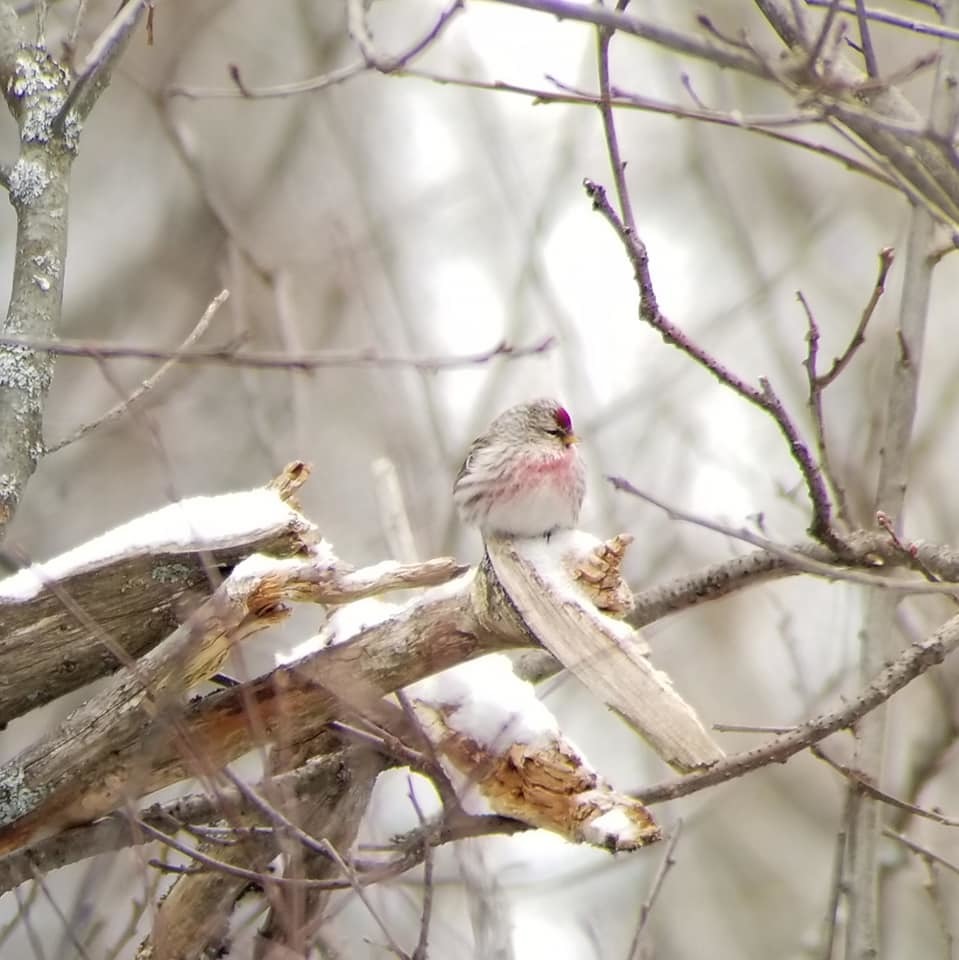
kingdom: Animalia
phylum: Chordata
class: Aves
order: Passeriformes
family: Fringillidae
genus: Acanthis
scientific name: Acanthis hornemanni
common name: Arctic redpoll
